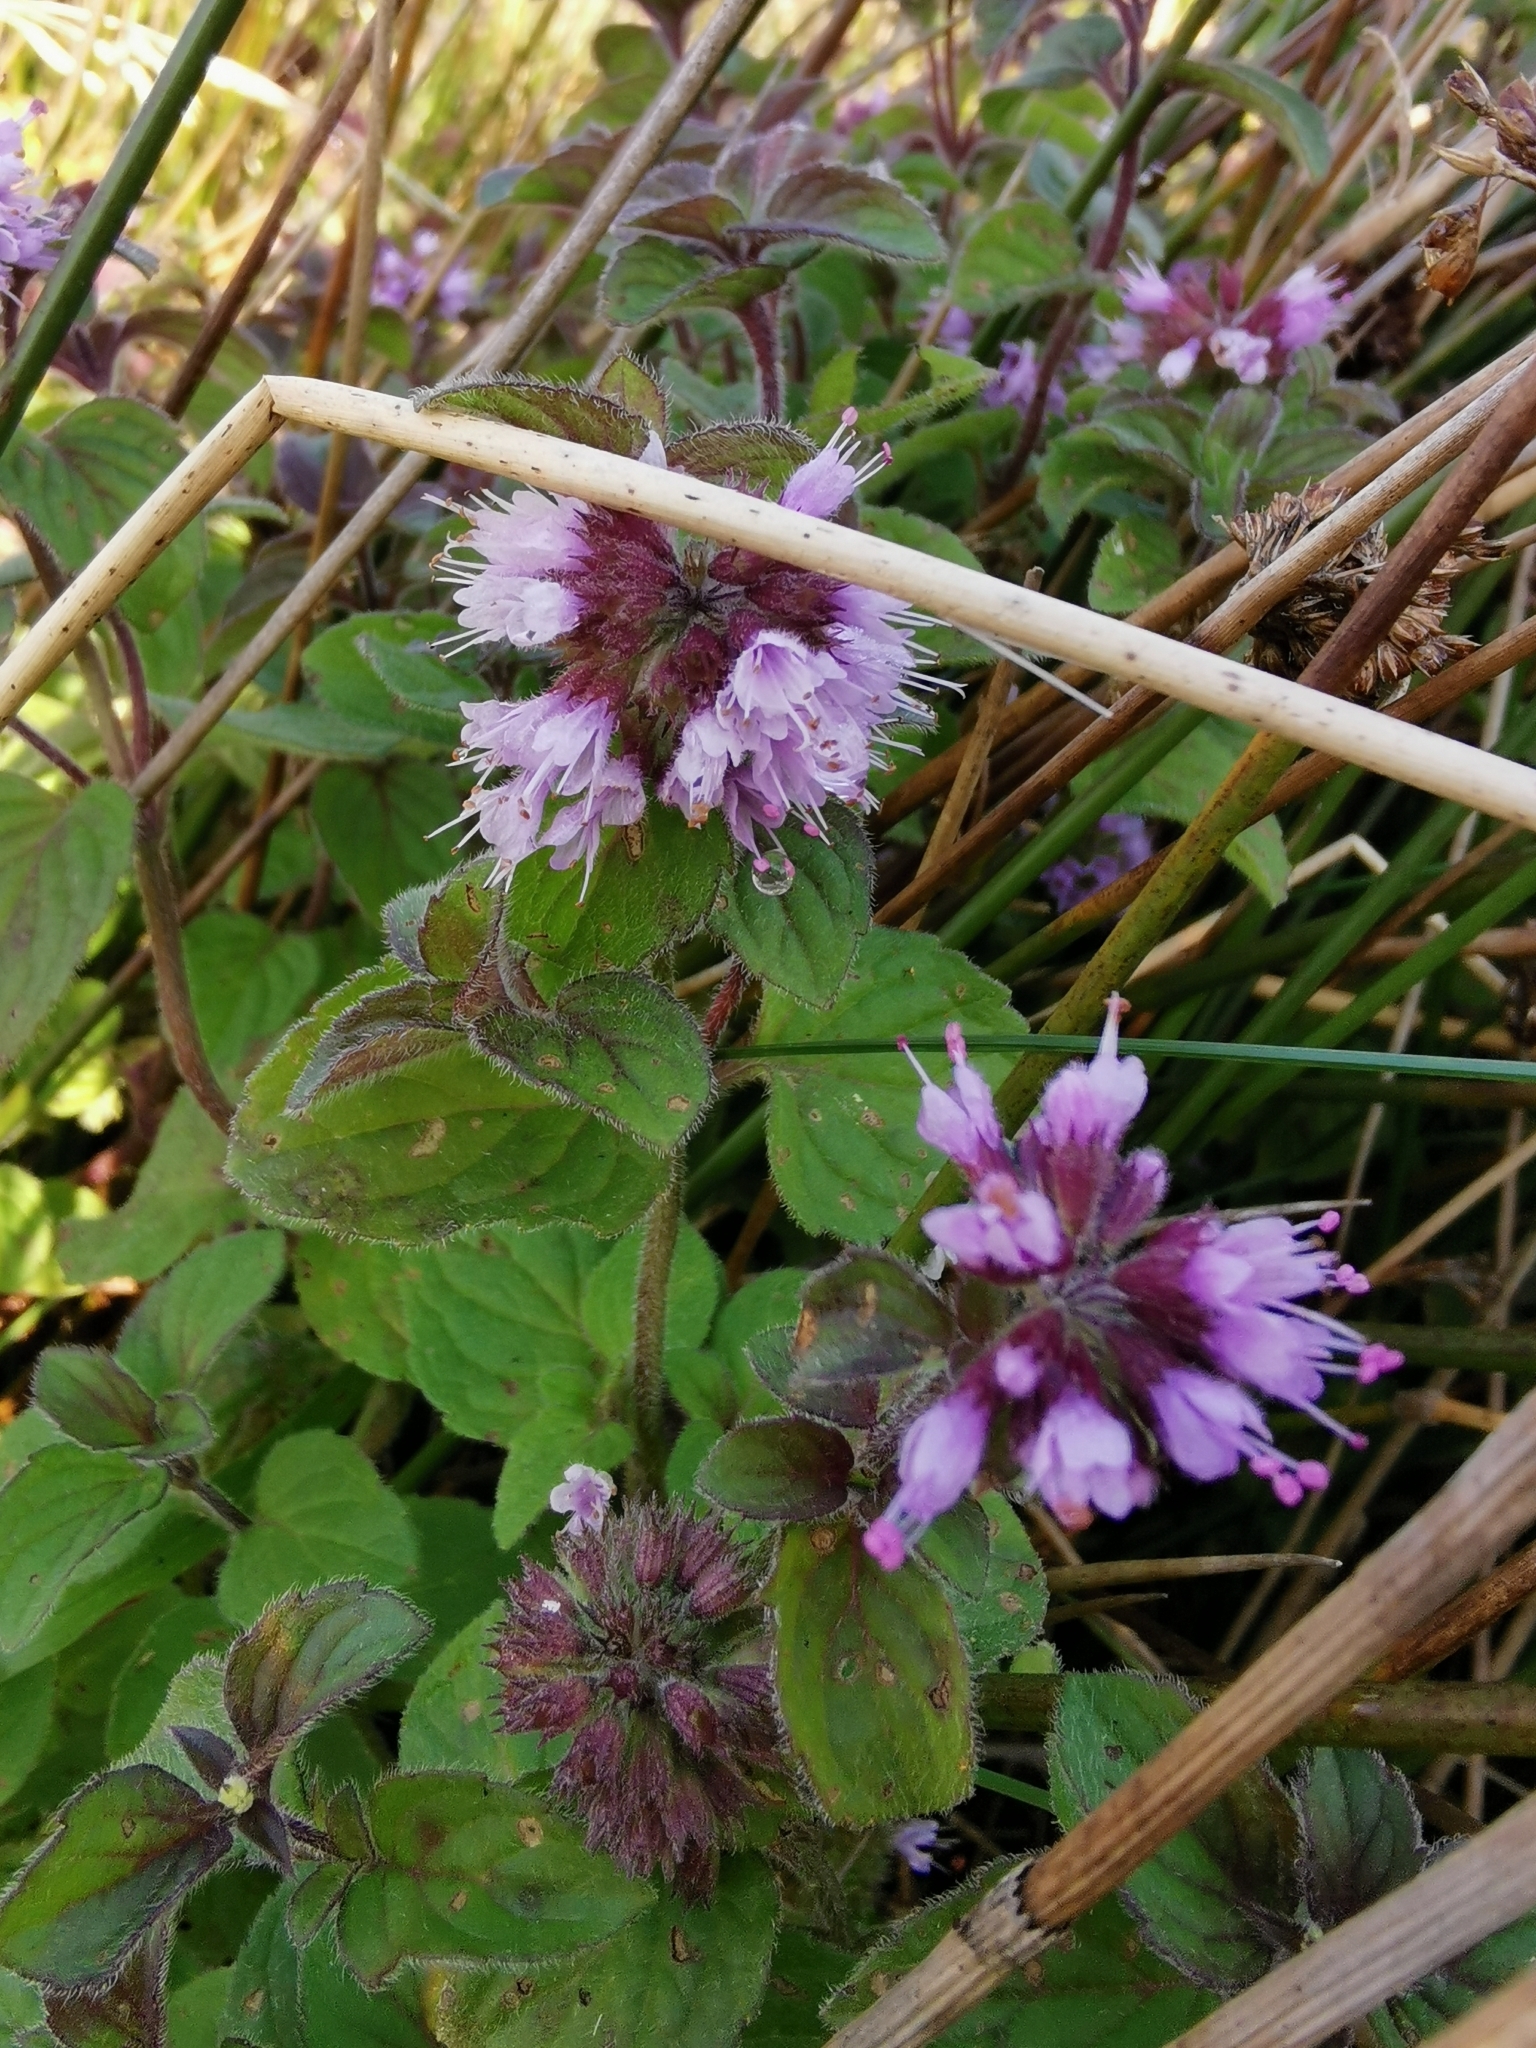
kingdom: Plantae
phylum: Tracheophyta
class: Magnoliopsida
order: Lamiales
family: Lamiaceae
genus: Mentha
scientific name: Mentha aquatica
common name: Water mint
